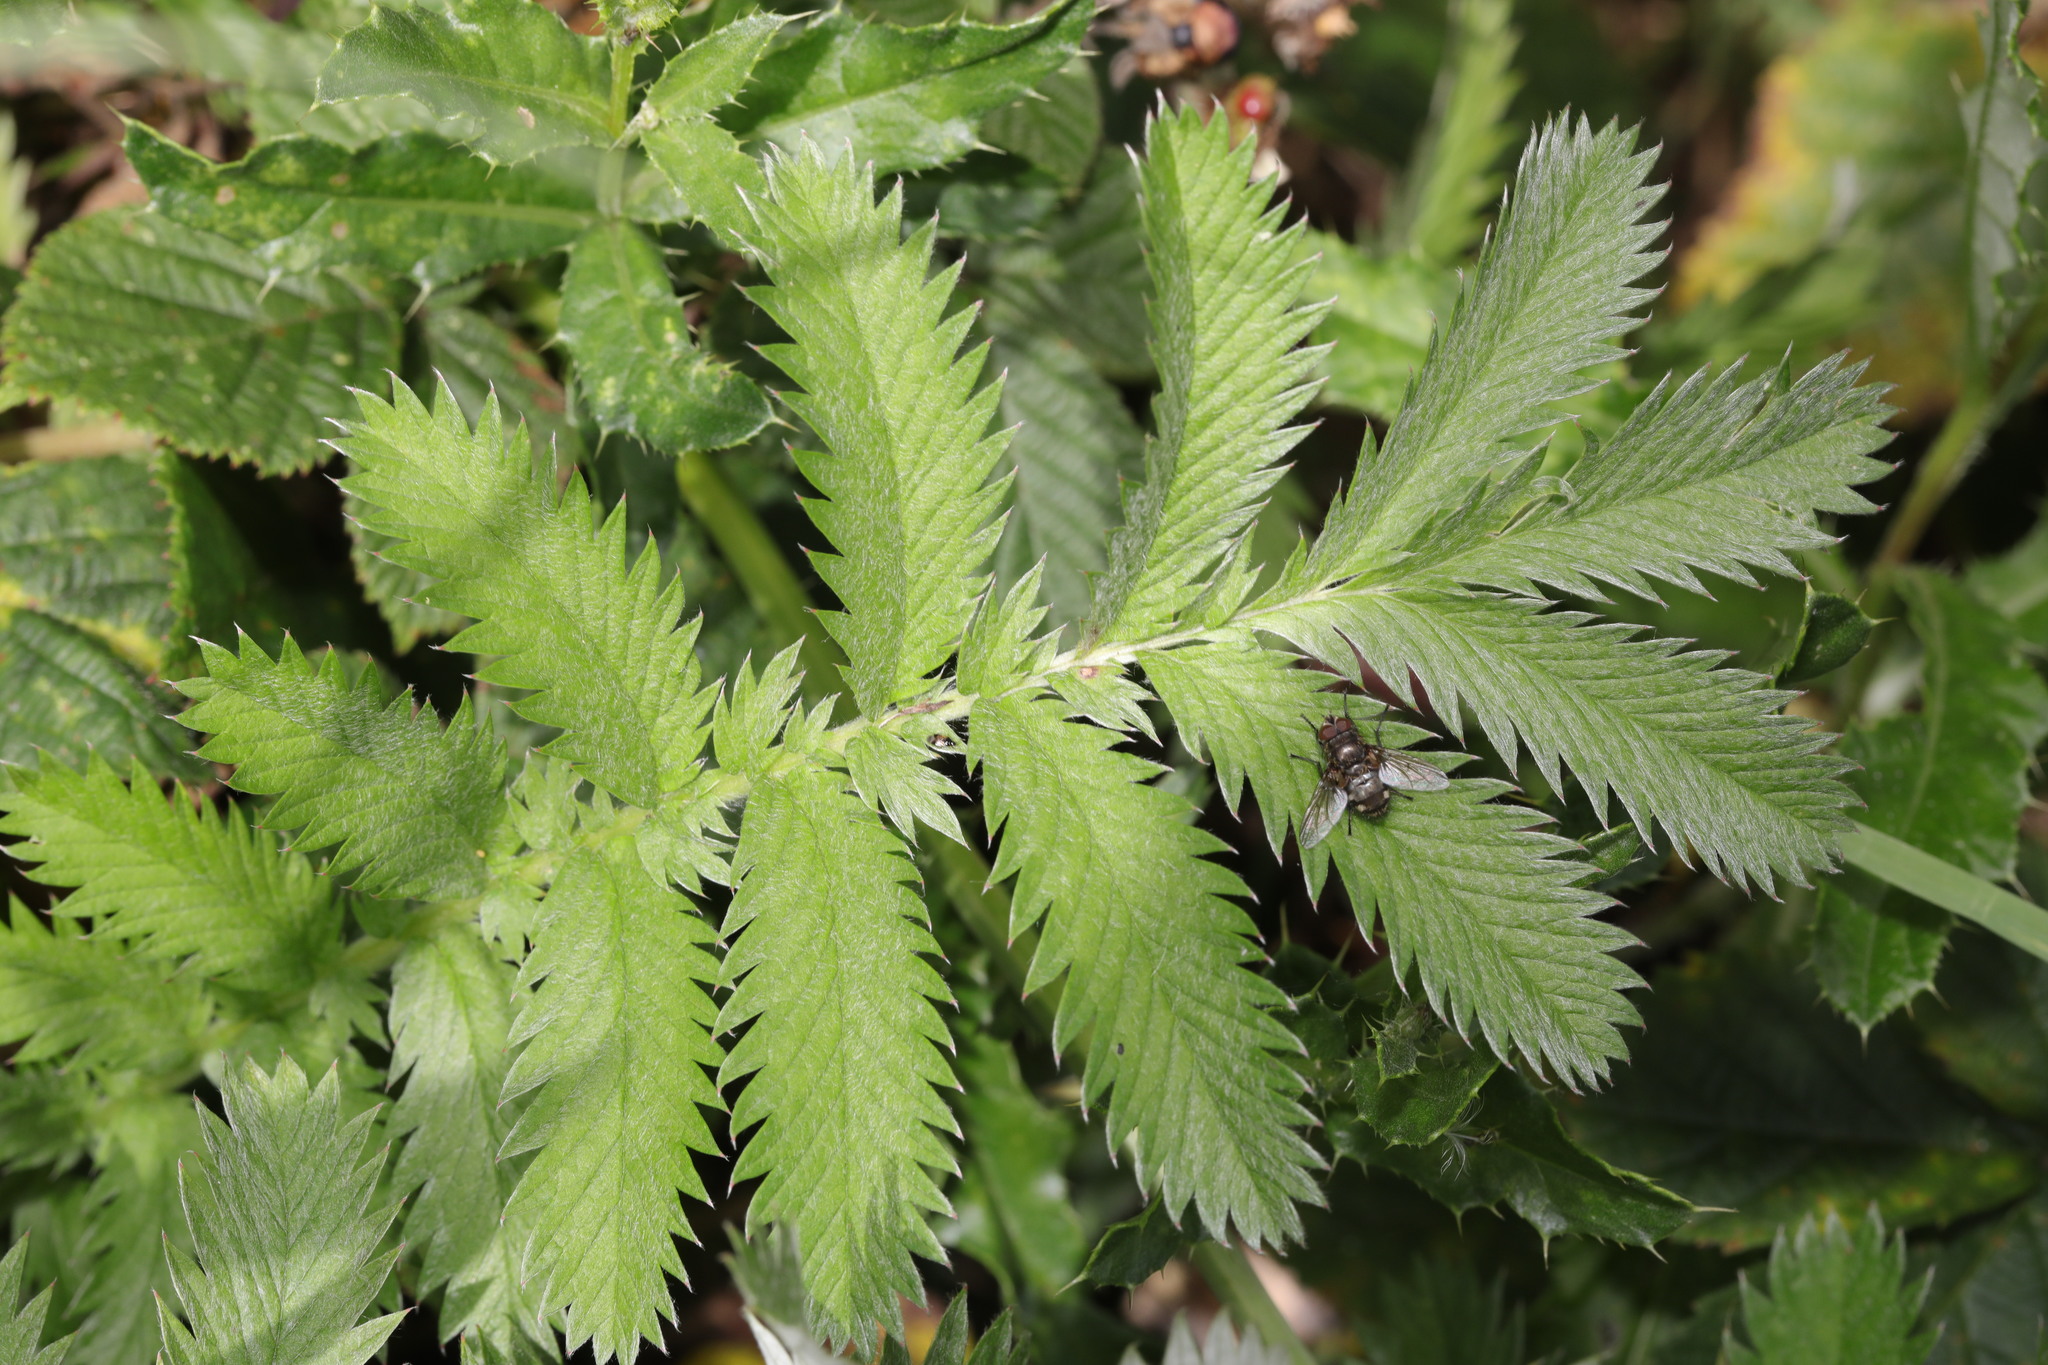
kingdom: Plantae
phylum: Tracheophyta
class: Magnoliopsida
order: Rosales
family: Rosaceae
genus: Argentina
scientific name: Argentina anserina
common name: Common silverweed
